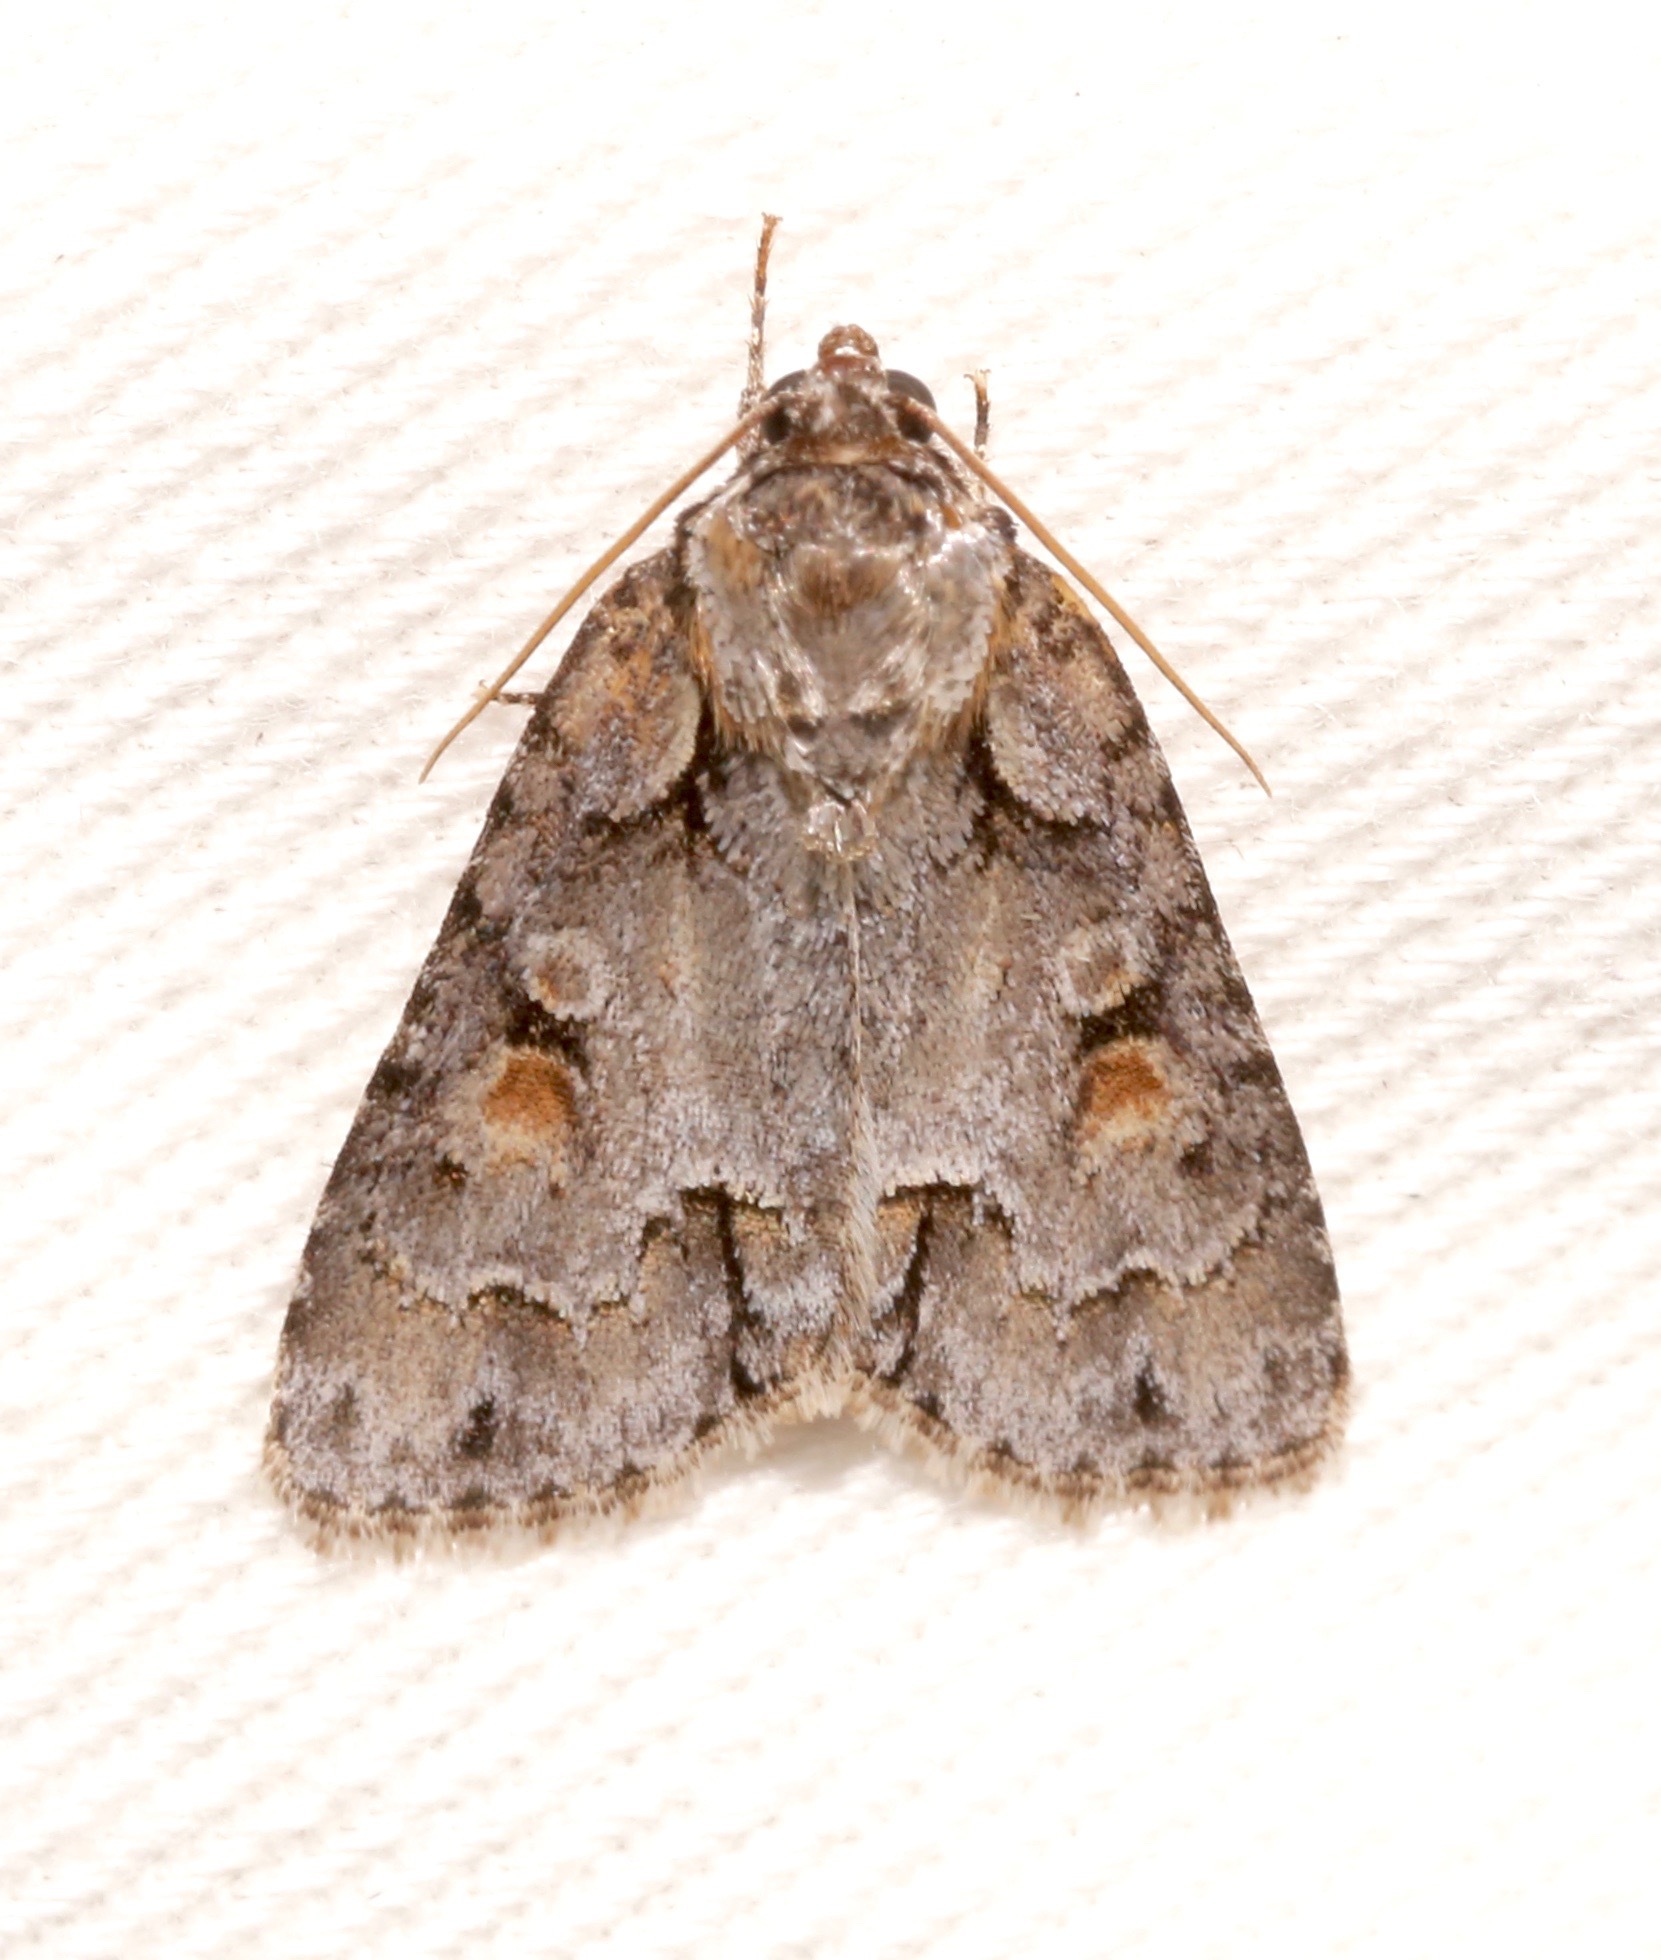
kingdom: Animalia
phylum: Arthropoda
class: Insecta
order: Lepidoptera
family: Noctuidae
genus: Acronicta
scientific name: Acronicta albarufa
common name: Barrens dagger moth
